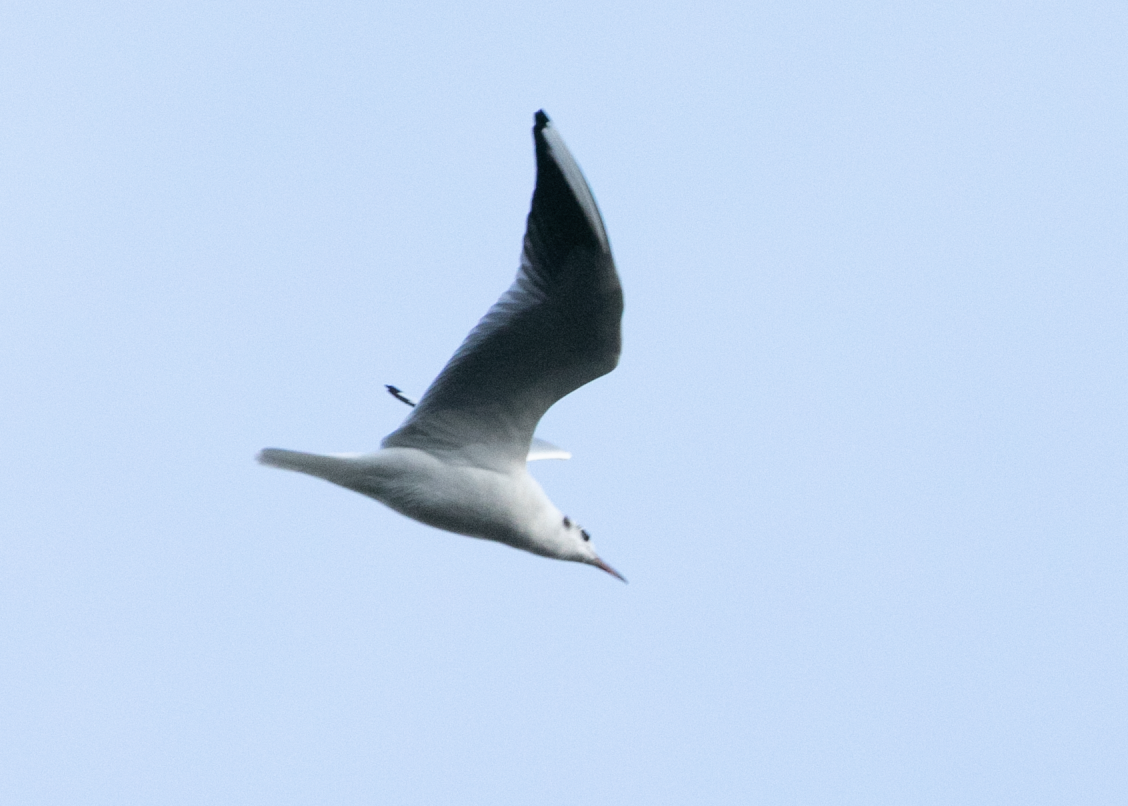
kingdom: Animalia
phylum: Chordata
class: Aves
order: Charadriiformes
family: Laridae
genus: Chroicocephalus
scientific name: Chroicocephalus ridibundus
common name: Black-headed gull
